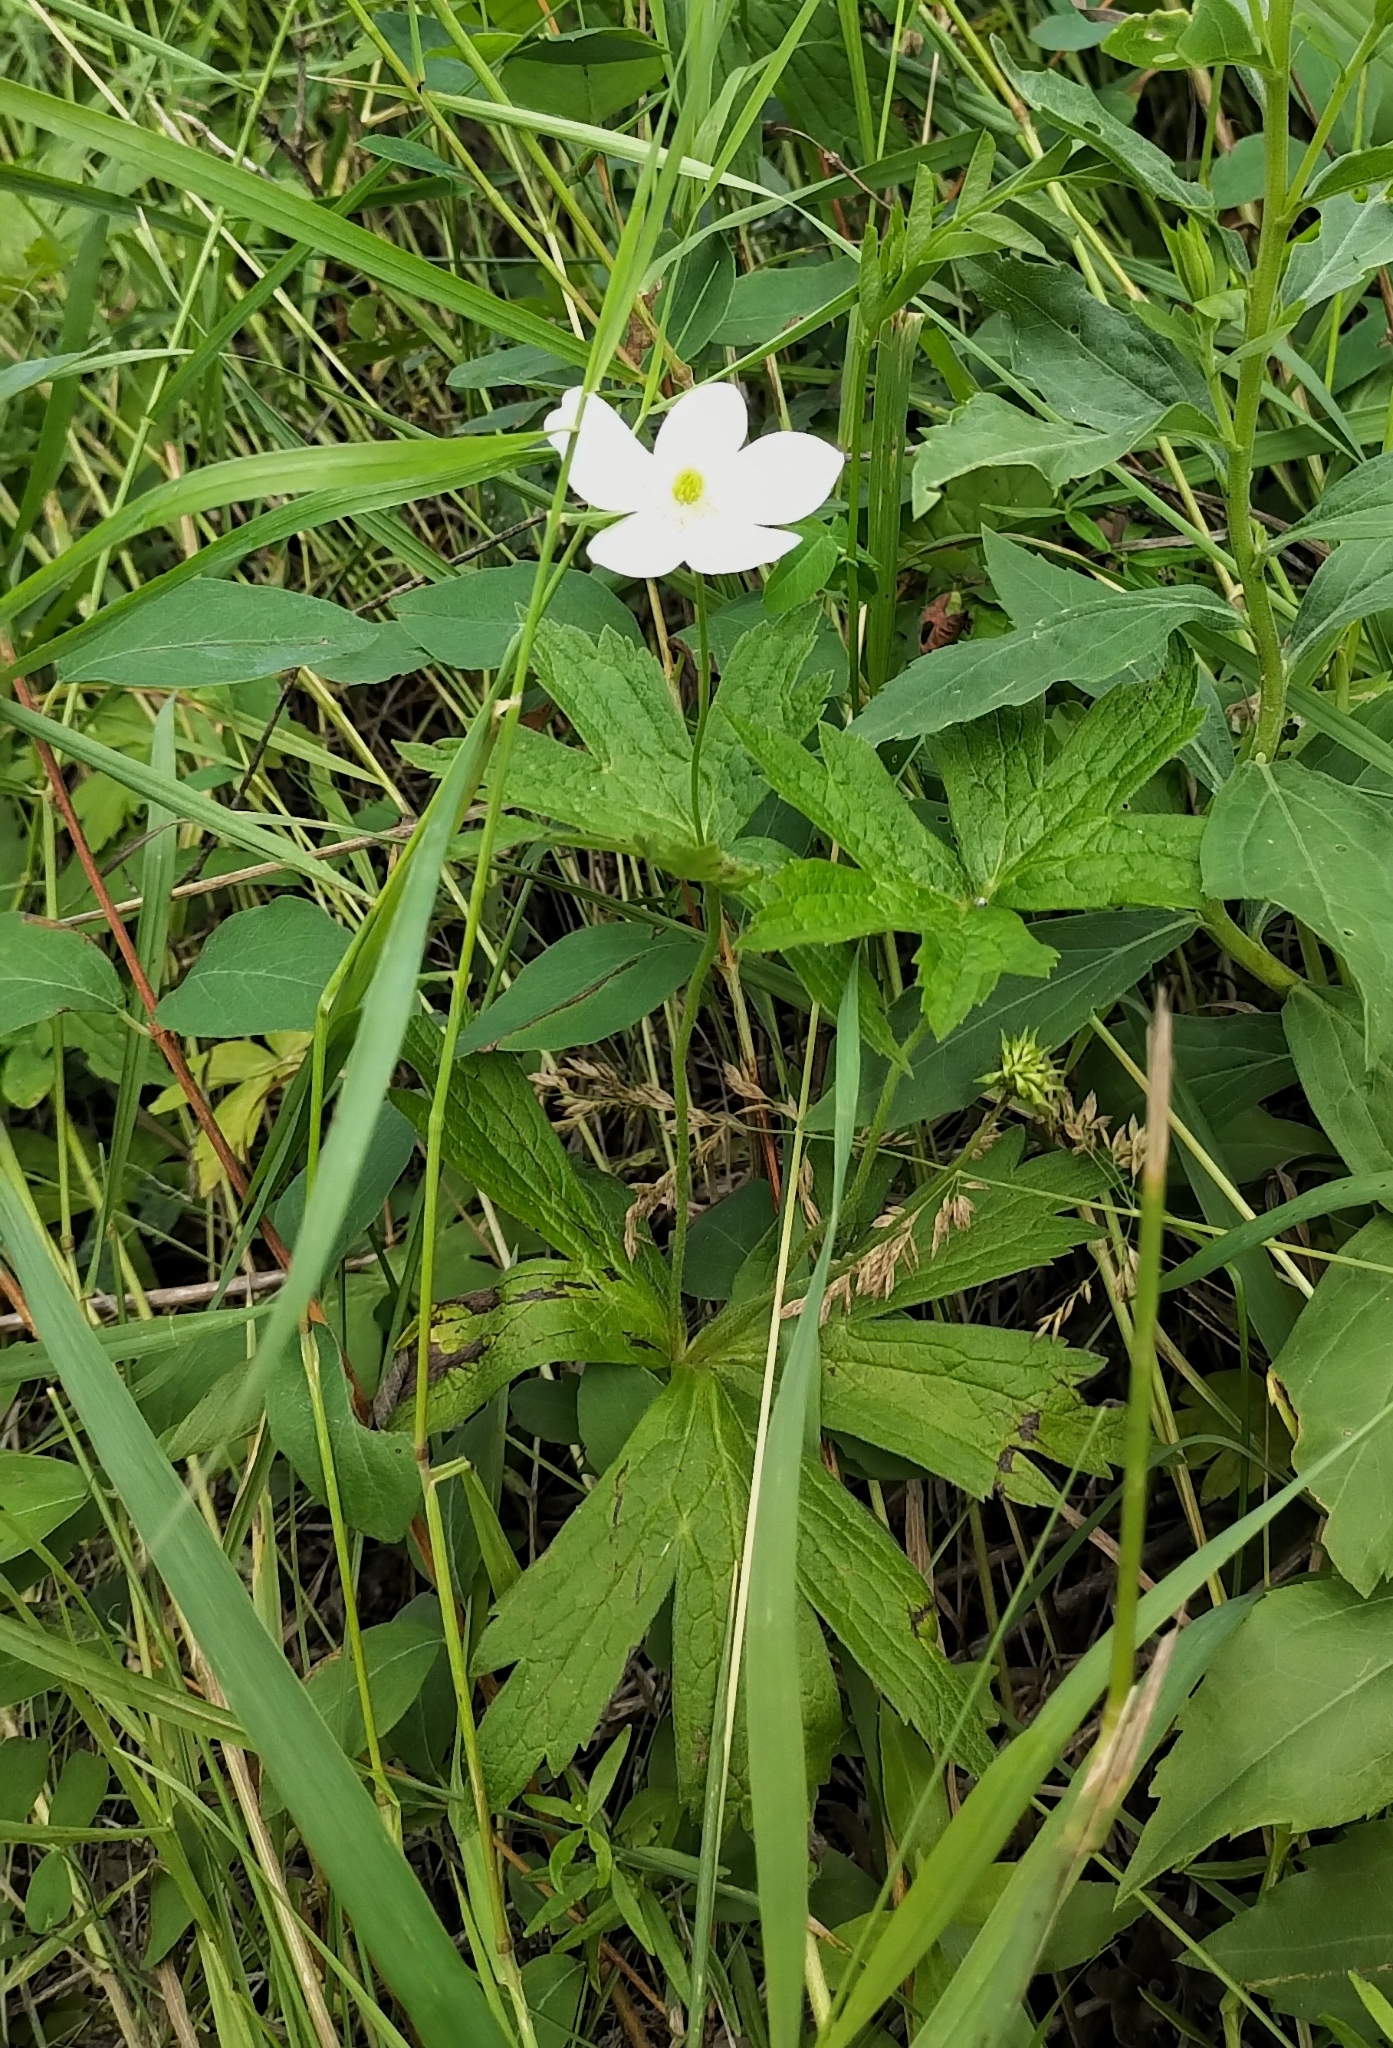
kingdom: Plantae
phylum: Tracheophyta
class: Magnoliopsida
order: Ranunculales
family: Ranunculaceae
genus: Anemonastrum
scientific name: Anemonastrum canadense
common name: Canada anemone
